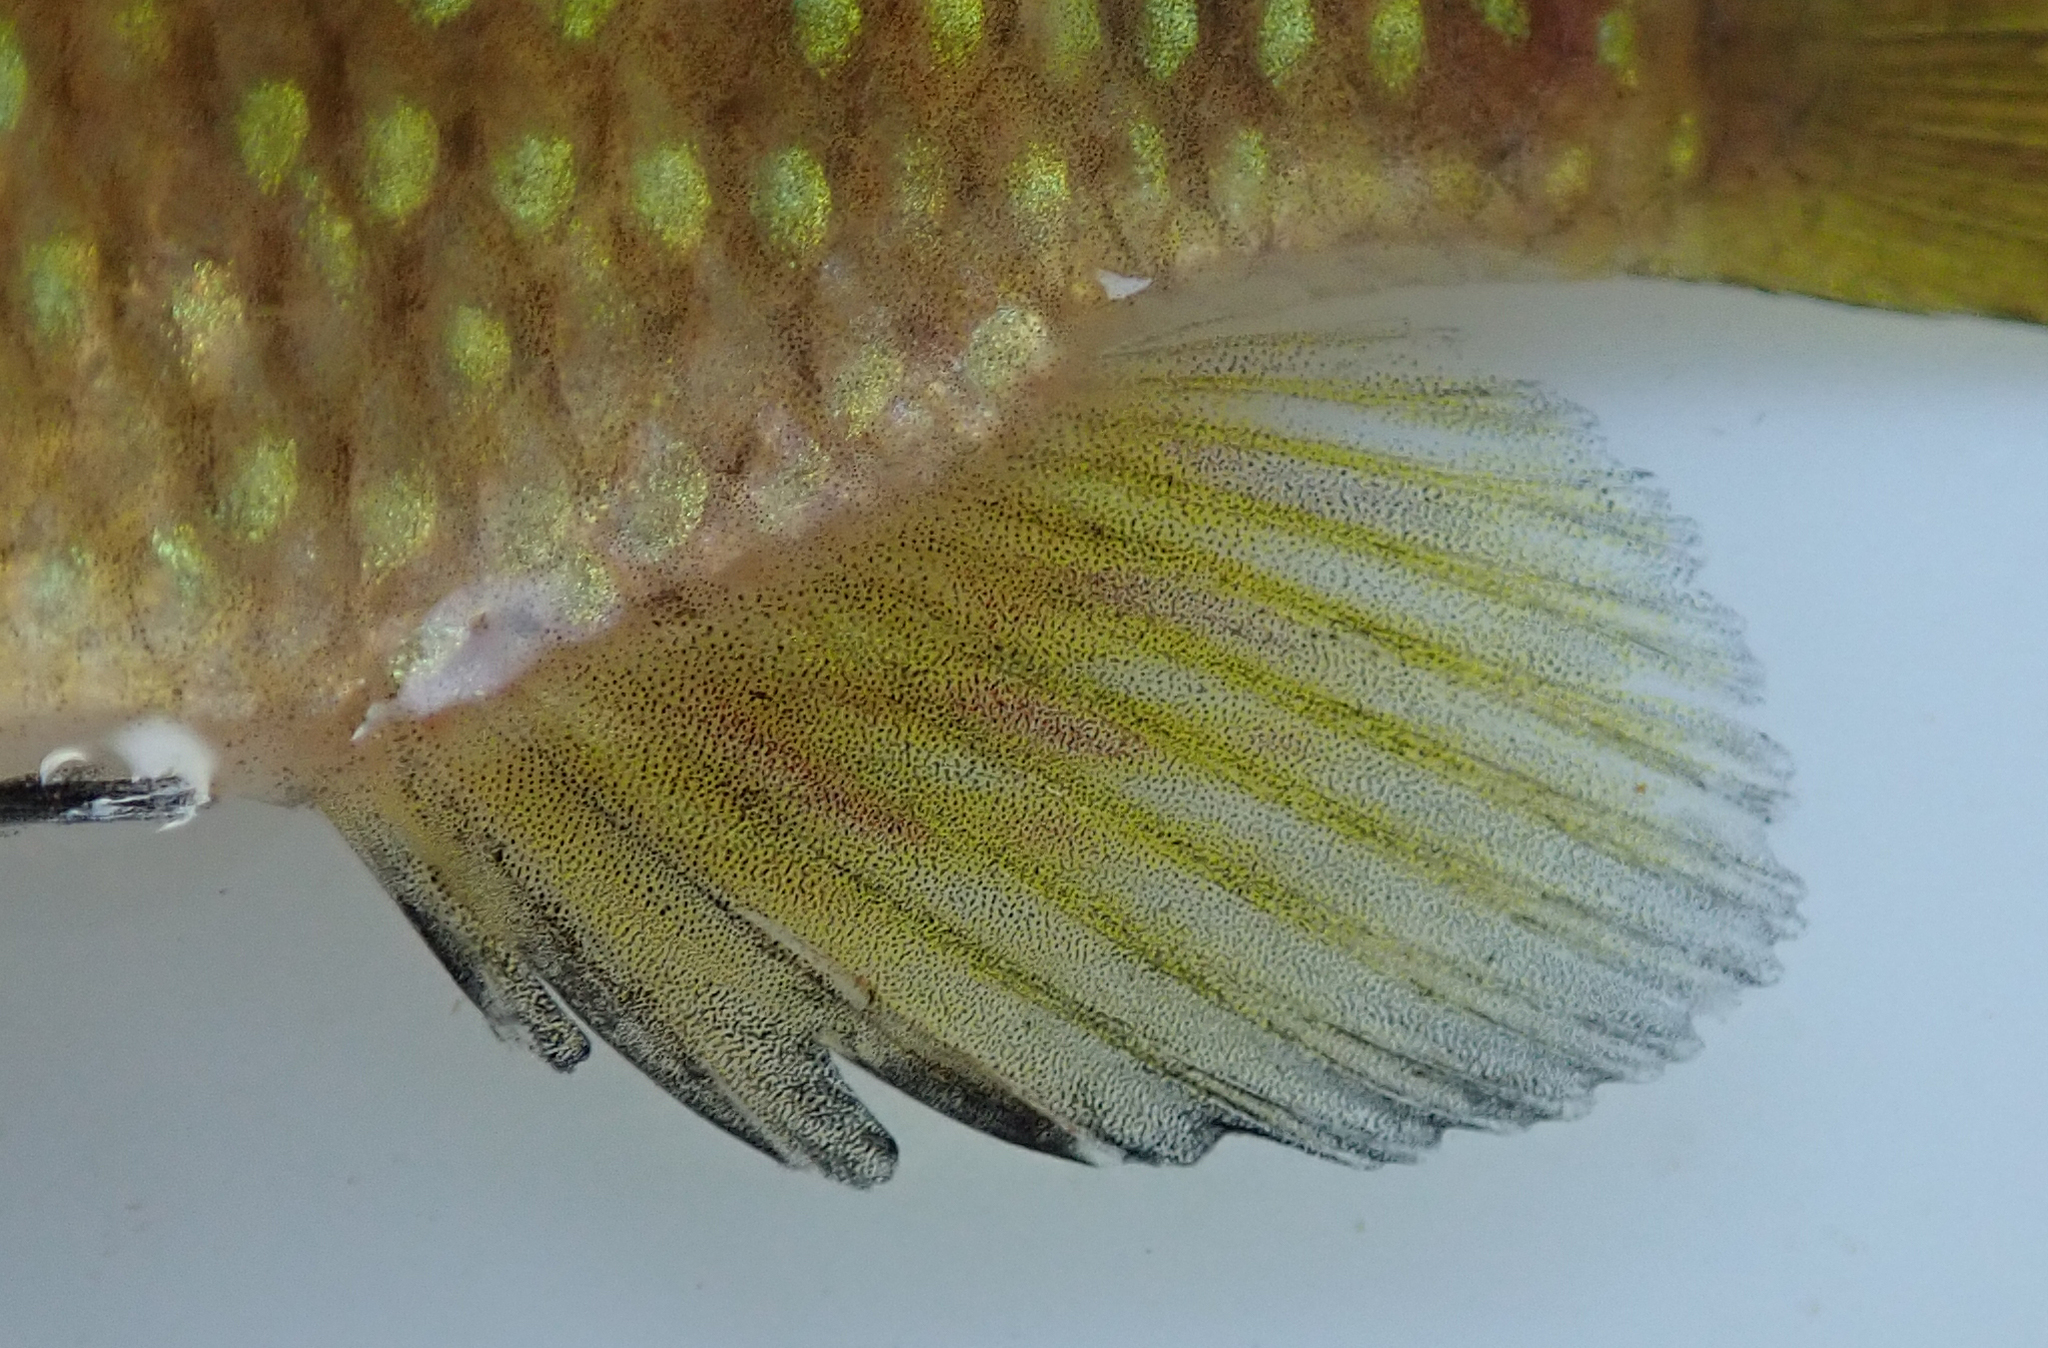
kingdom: Animalia
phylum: Chordata
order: Perciformes
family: Cichlidae
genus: Tilapia
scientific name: Tilapia sparrmanii
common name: Banded tilapia
